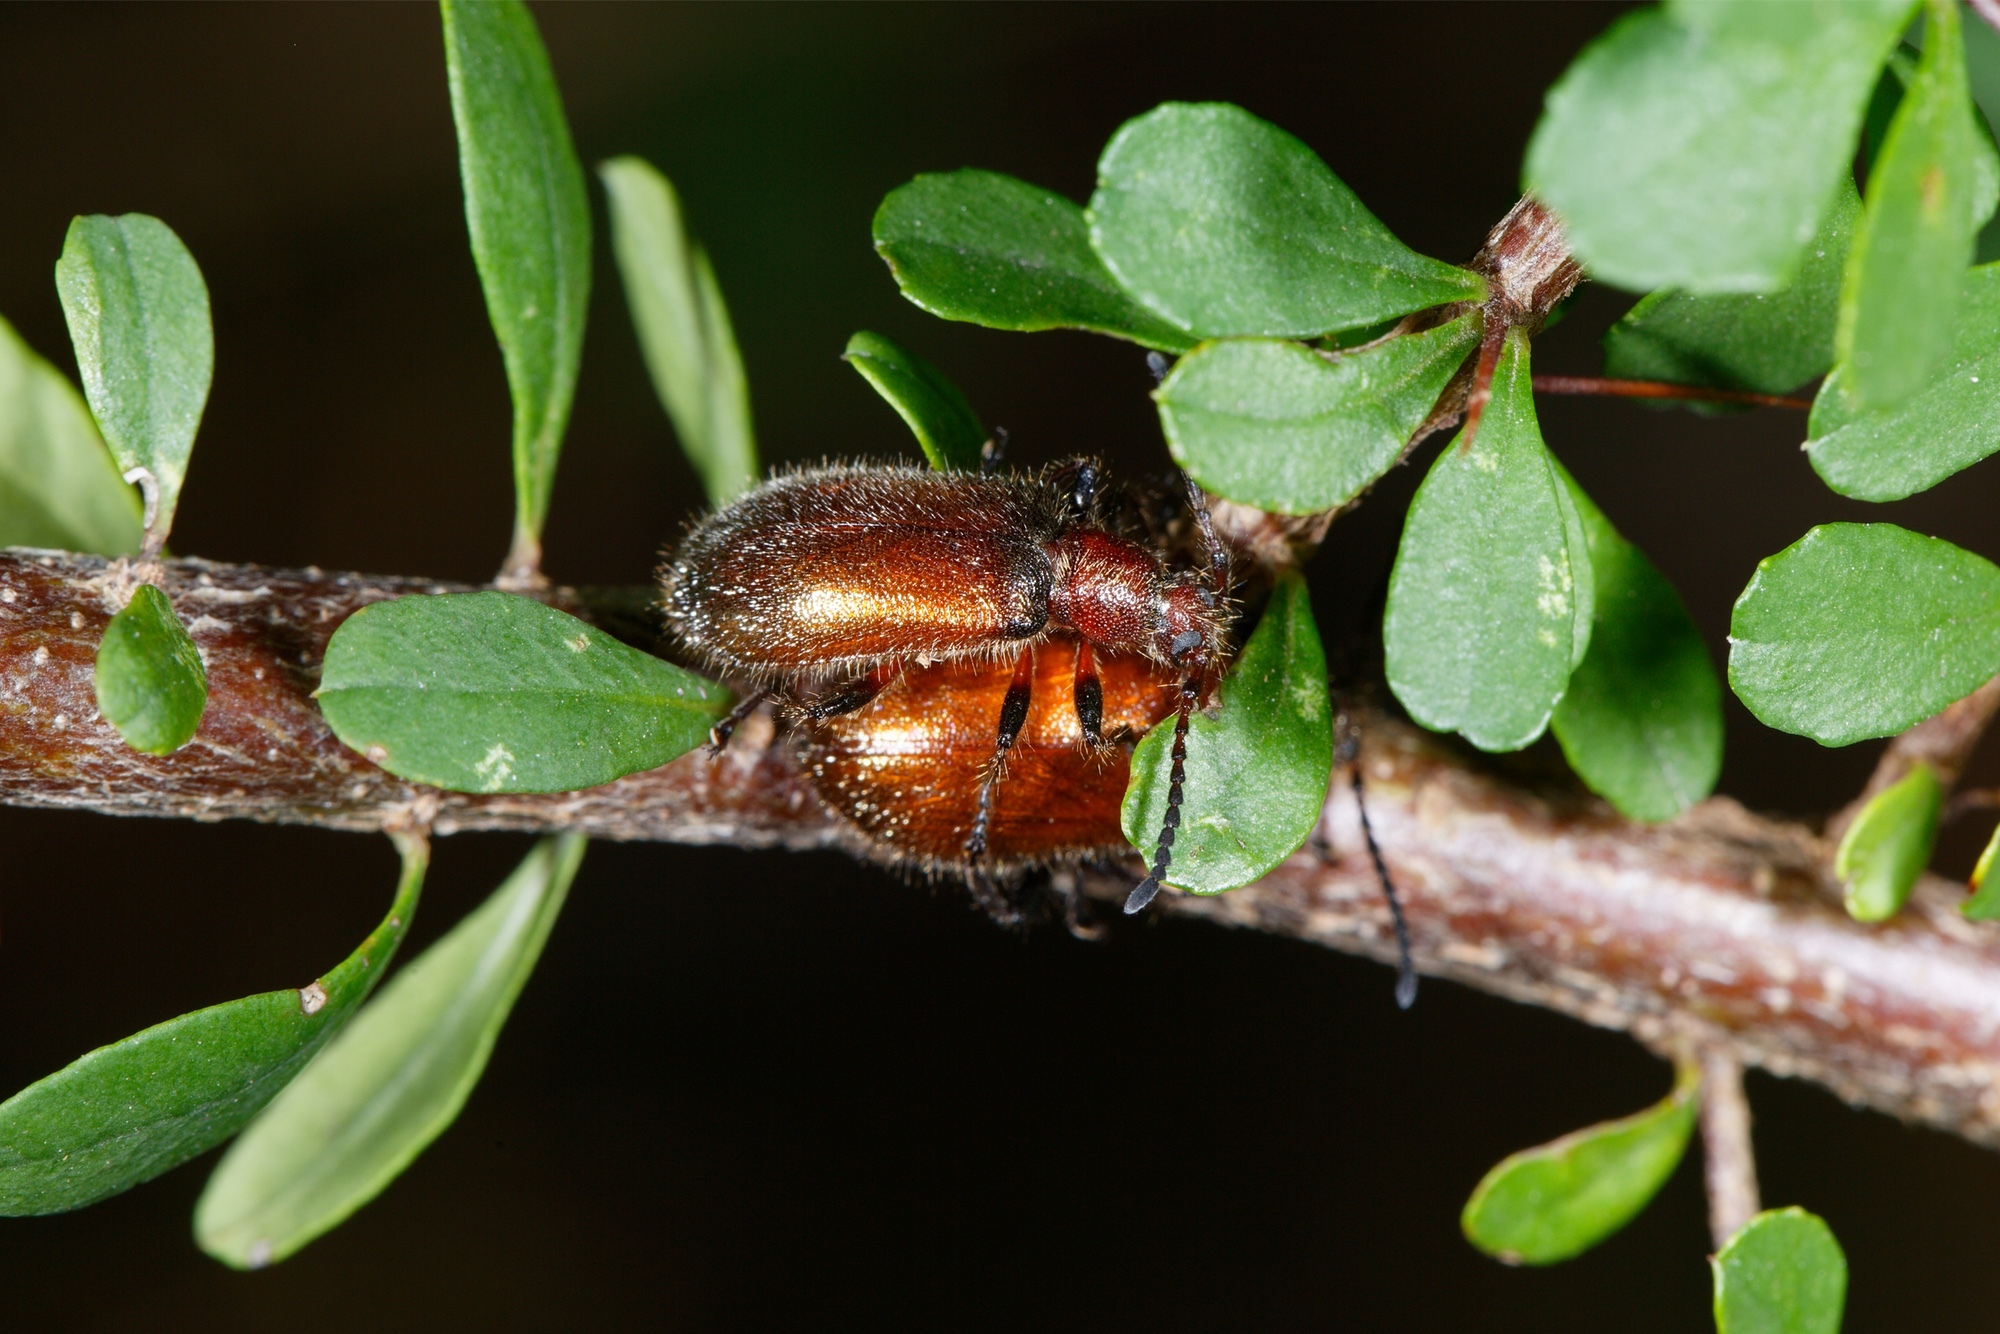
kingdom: Animalia
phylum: Arthropoda
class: Insecta
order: Coleoptera
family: Tenebrionidae
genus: Metriolagria
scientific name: Metriolagria affinis
